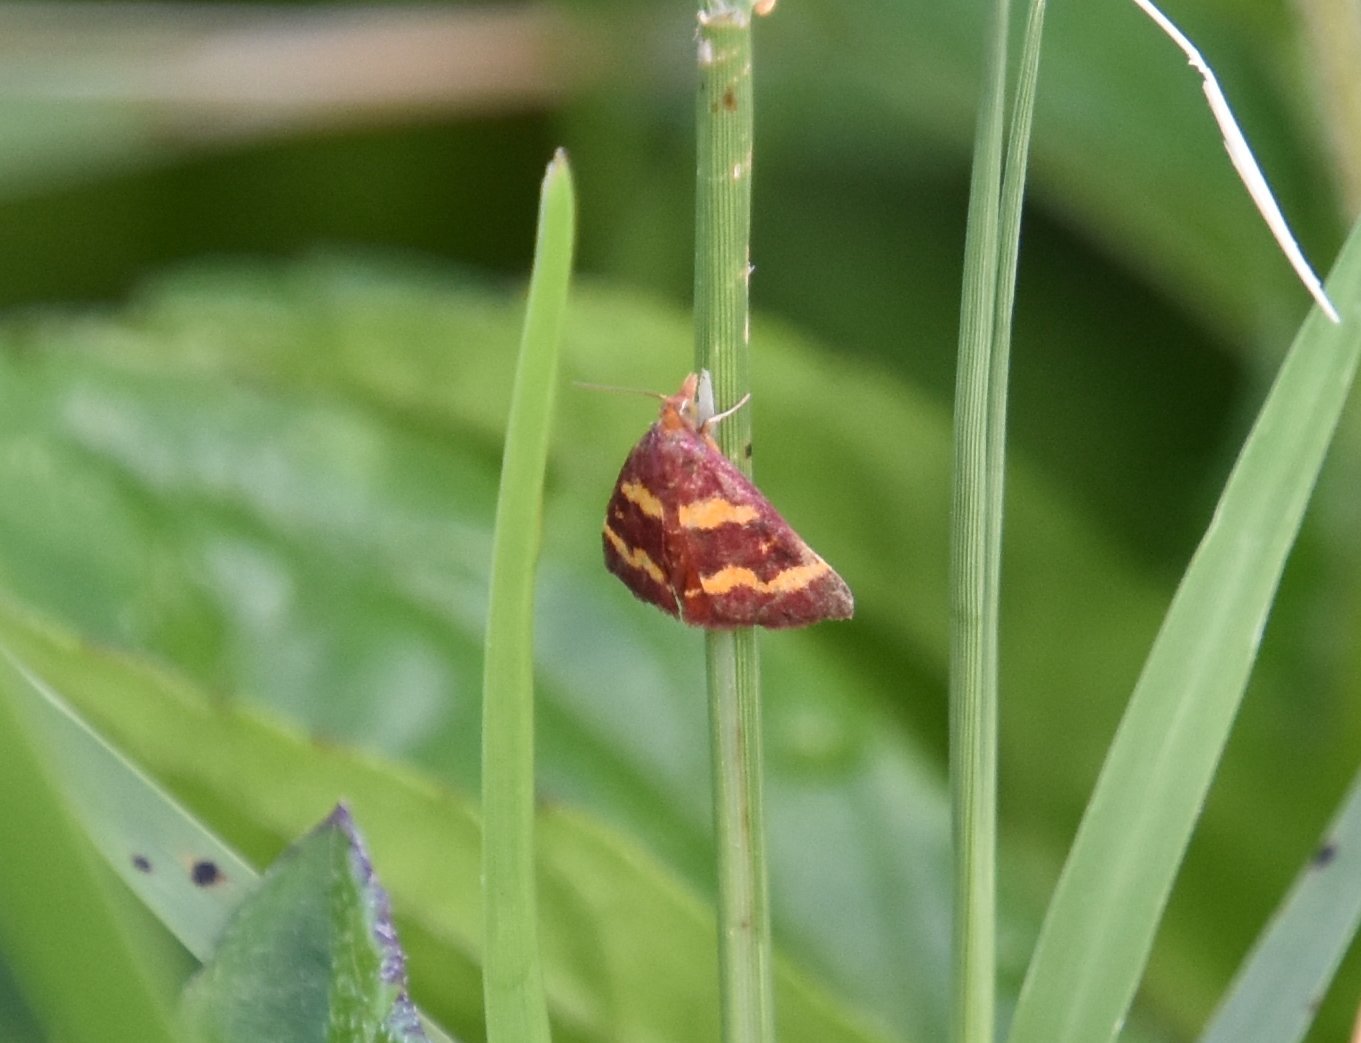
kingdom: Animalia
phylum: Arthropoda
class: Insecta
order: Lepidoptera
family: Crambidae
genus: Pyrausta
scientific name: Pyrausta tyralis
